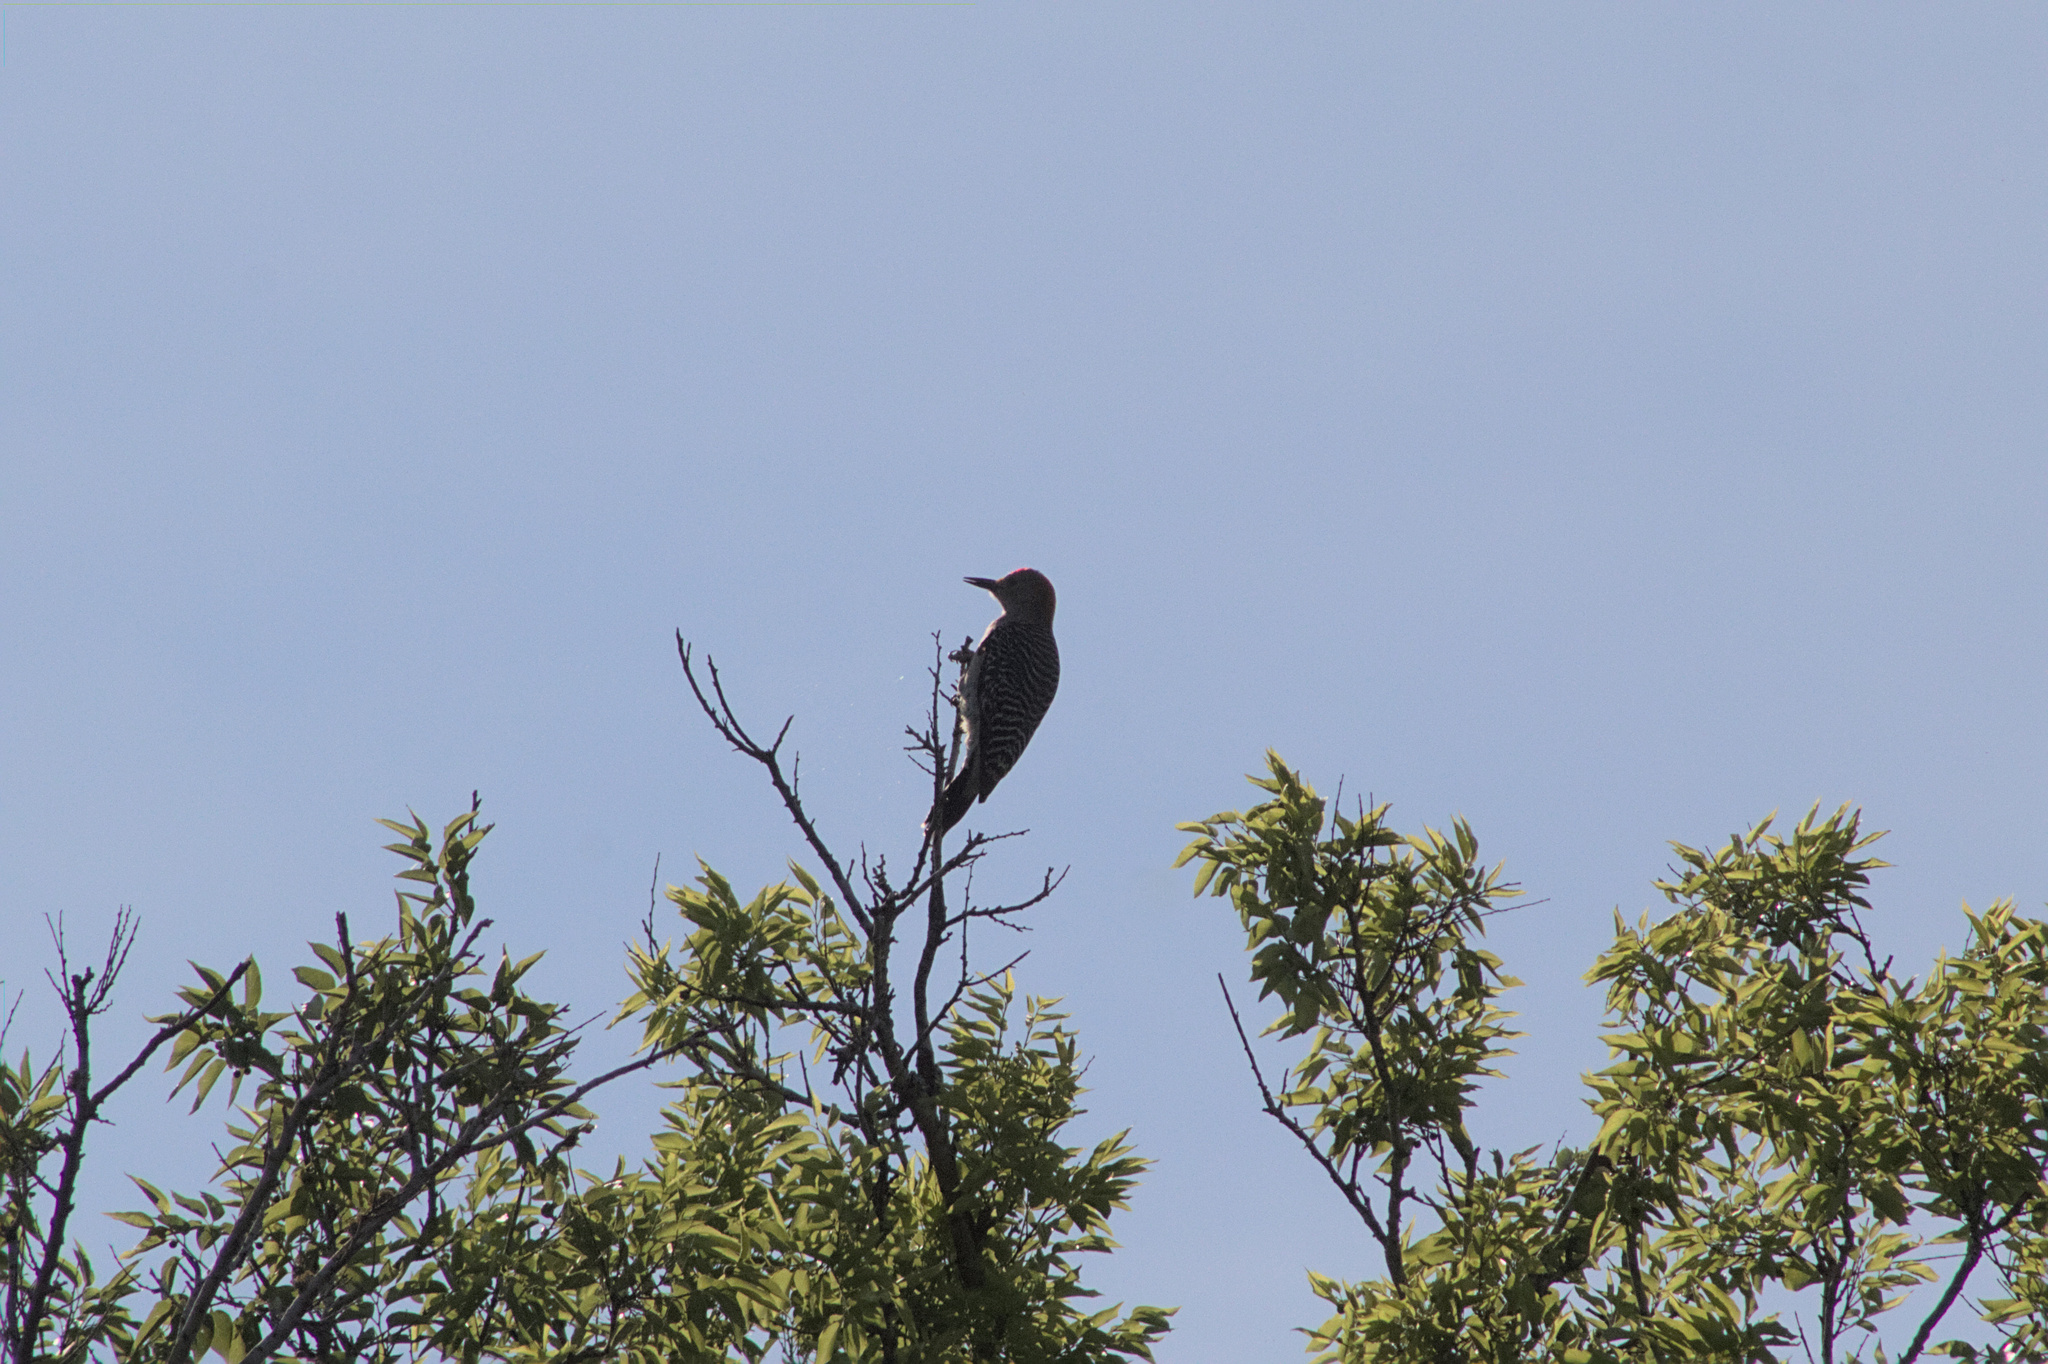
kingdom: Animalia
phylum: Chordata
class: Aves
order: Piciformes
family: Picidae
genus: Melanerpes
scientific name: Melanerpes aurifrons
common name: Golden-fronted woodpecker
